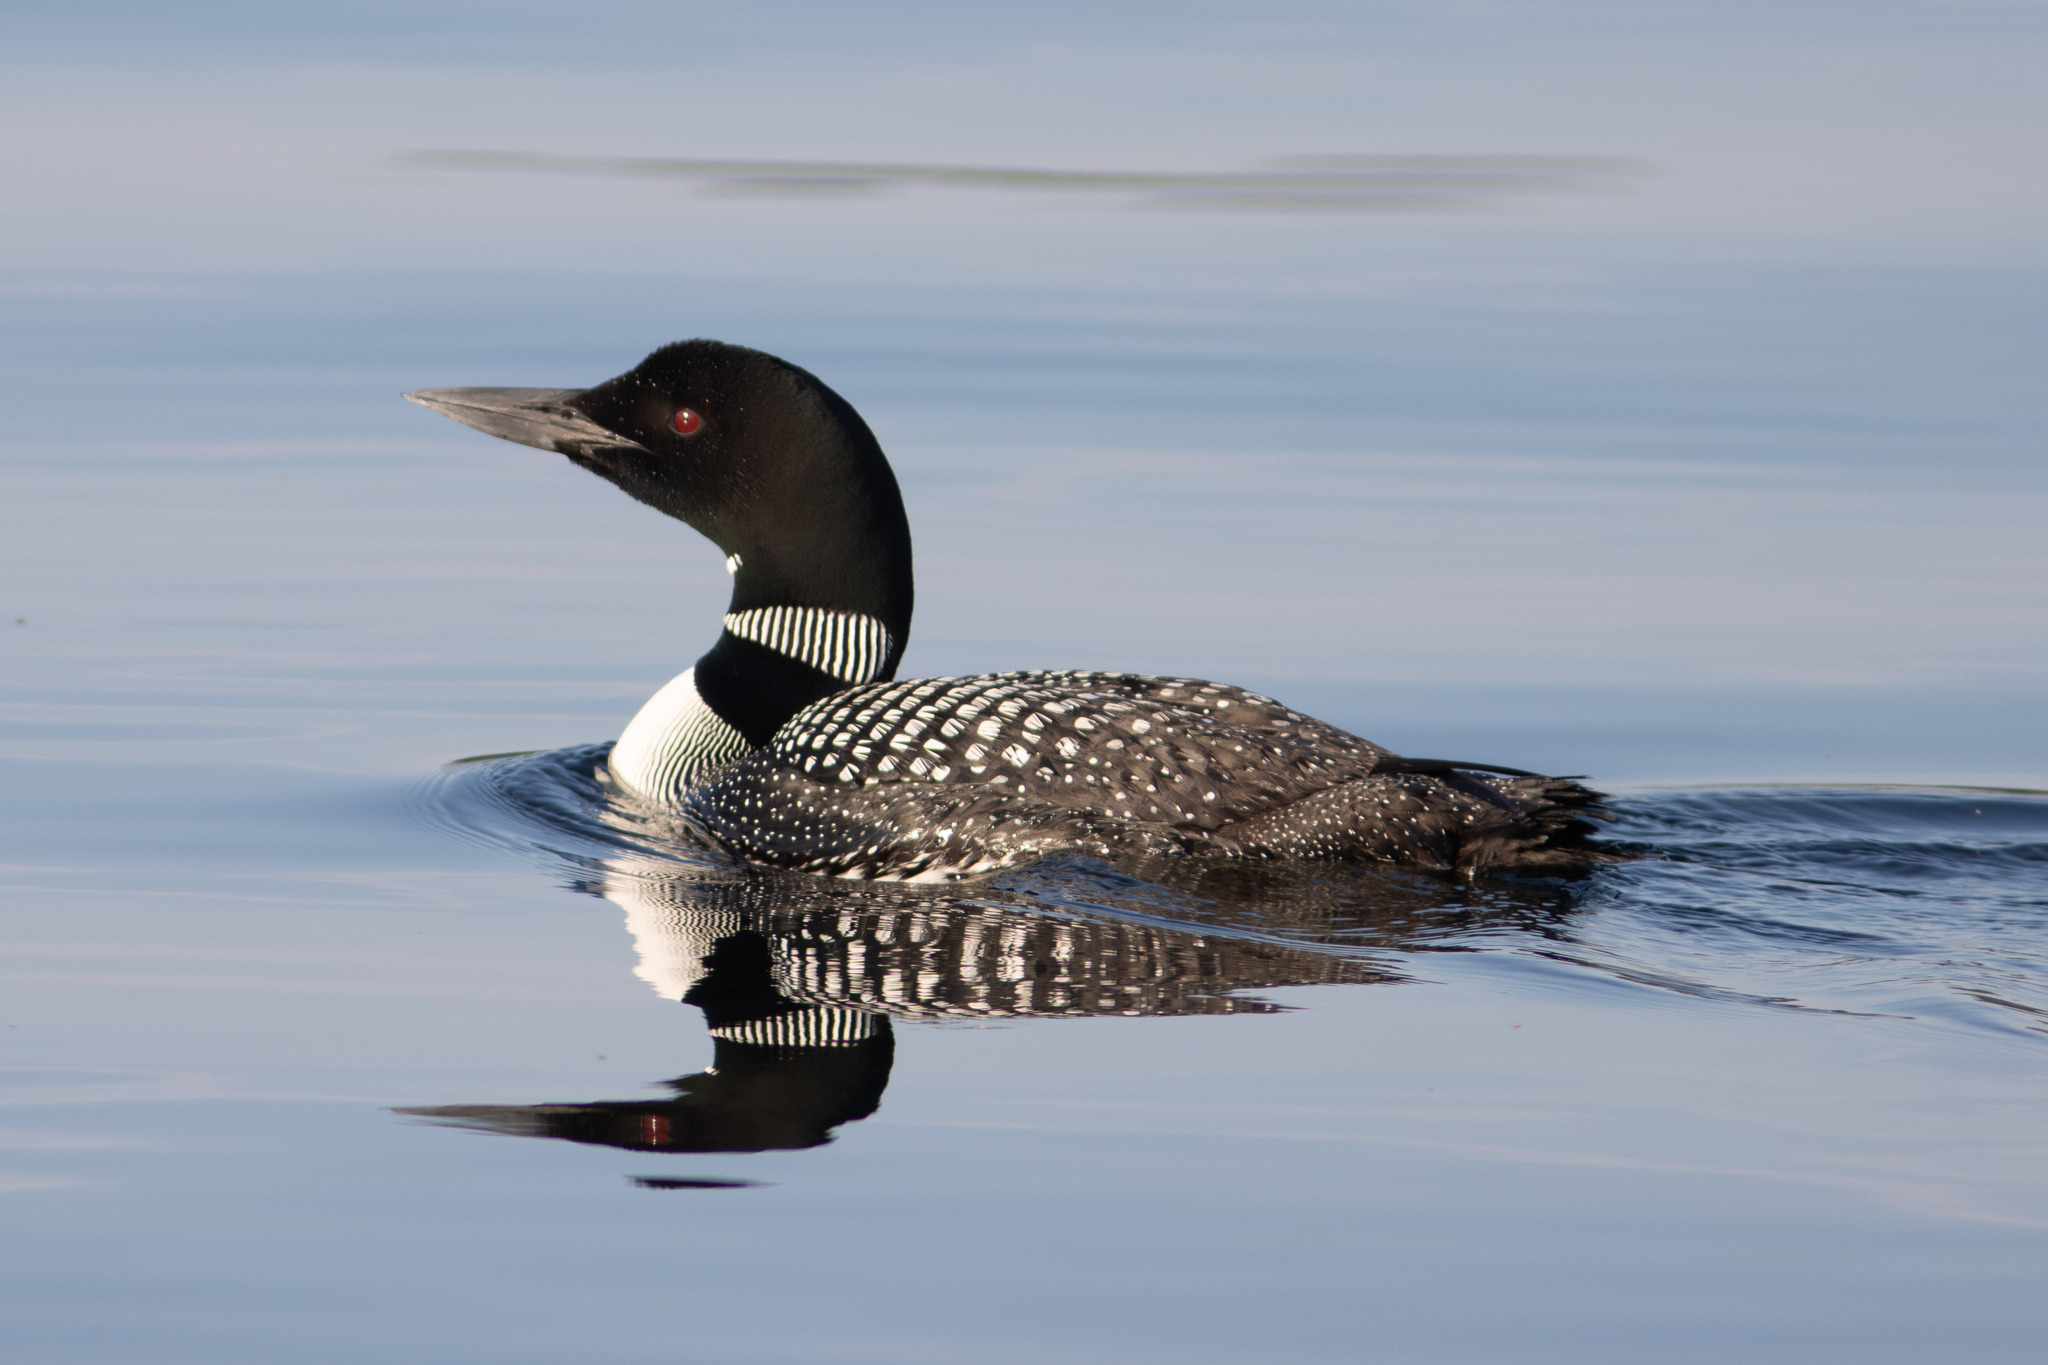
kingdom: Animalia
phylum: Chordata
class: Aves
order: Gaviiformes
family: Gaviidae
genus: Gavia
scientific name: Gavia immer
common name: Common loon
